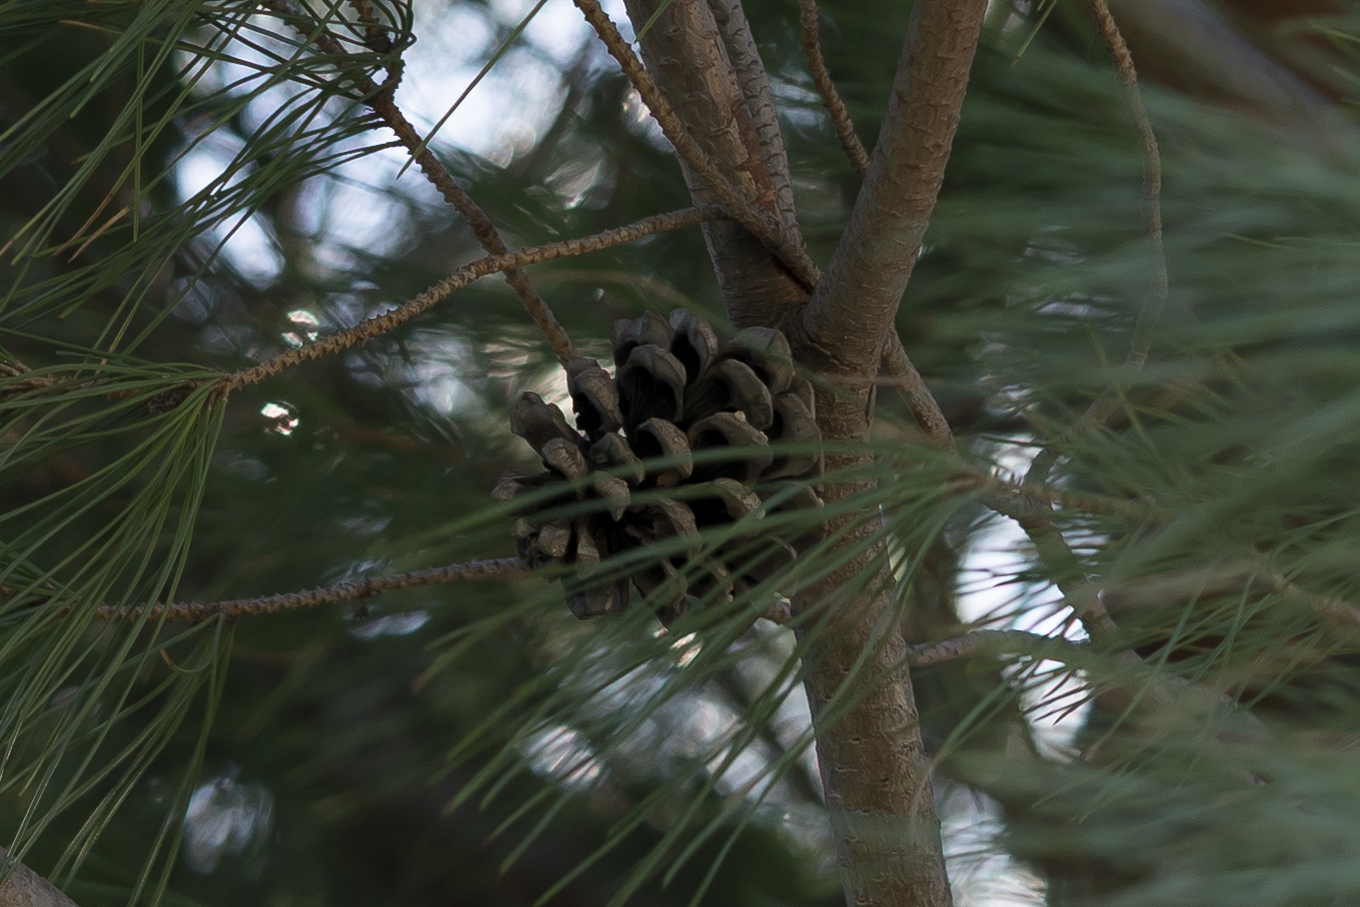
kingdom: Plantae
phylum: Tracheophyta
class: Pinopsida
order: Pinales
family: Pinaceae
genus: Pinus
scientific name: Pinus pinea
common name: Italian stone pine
